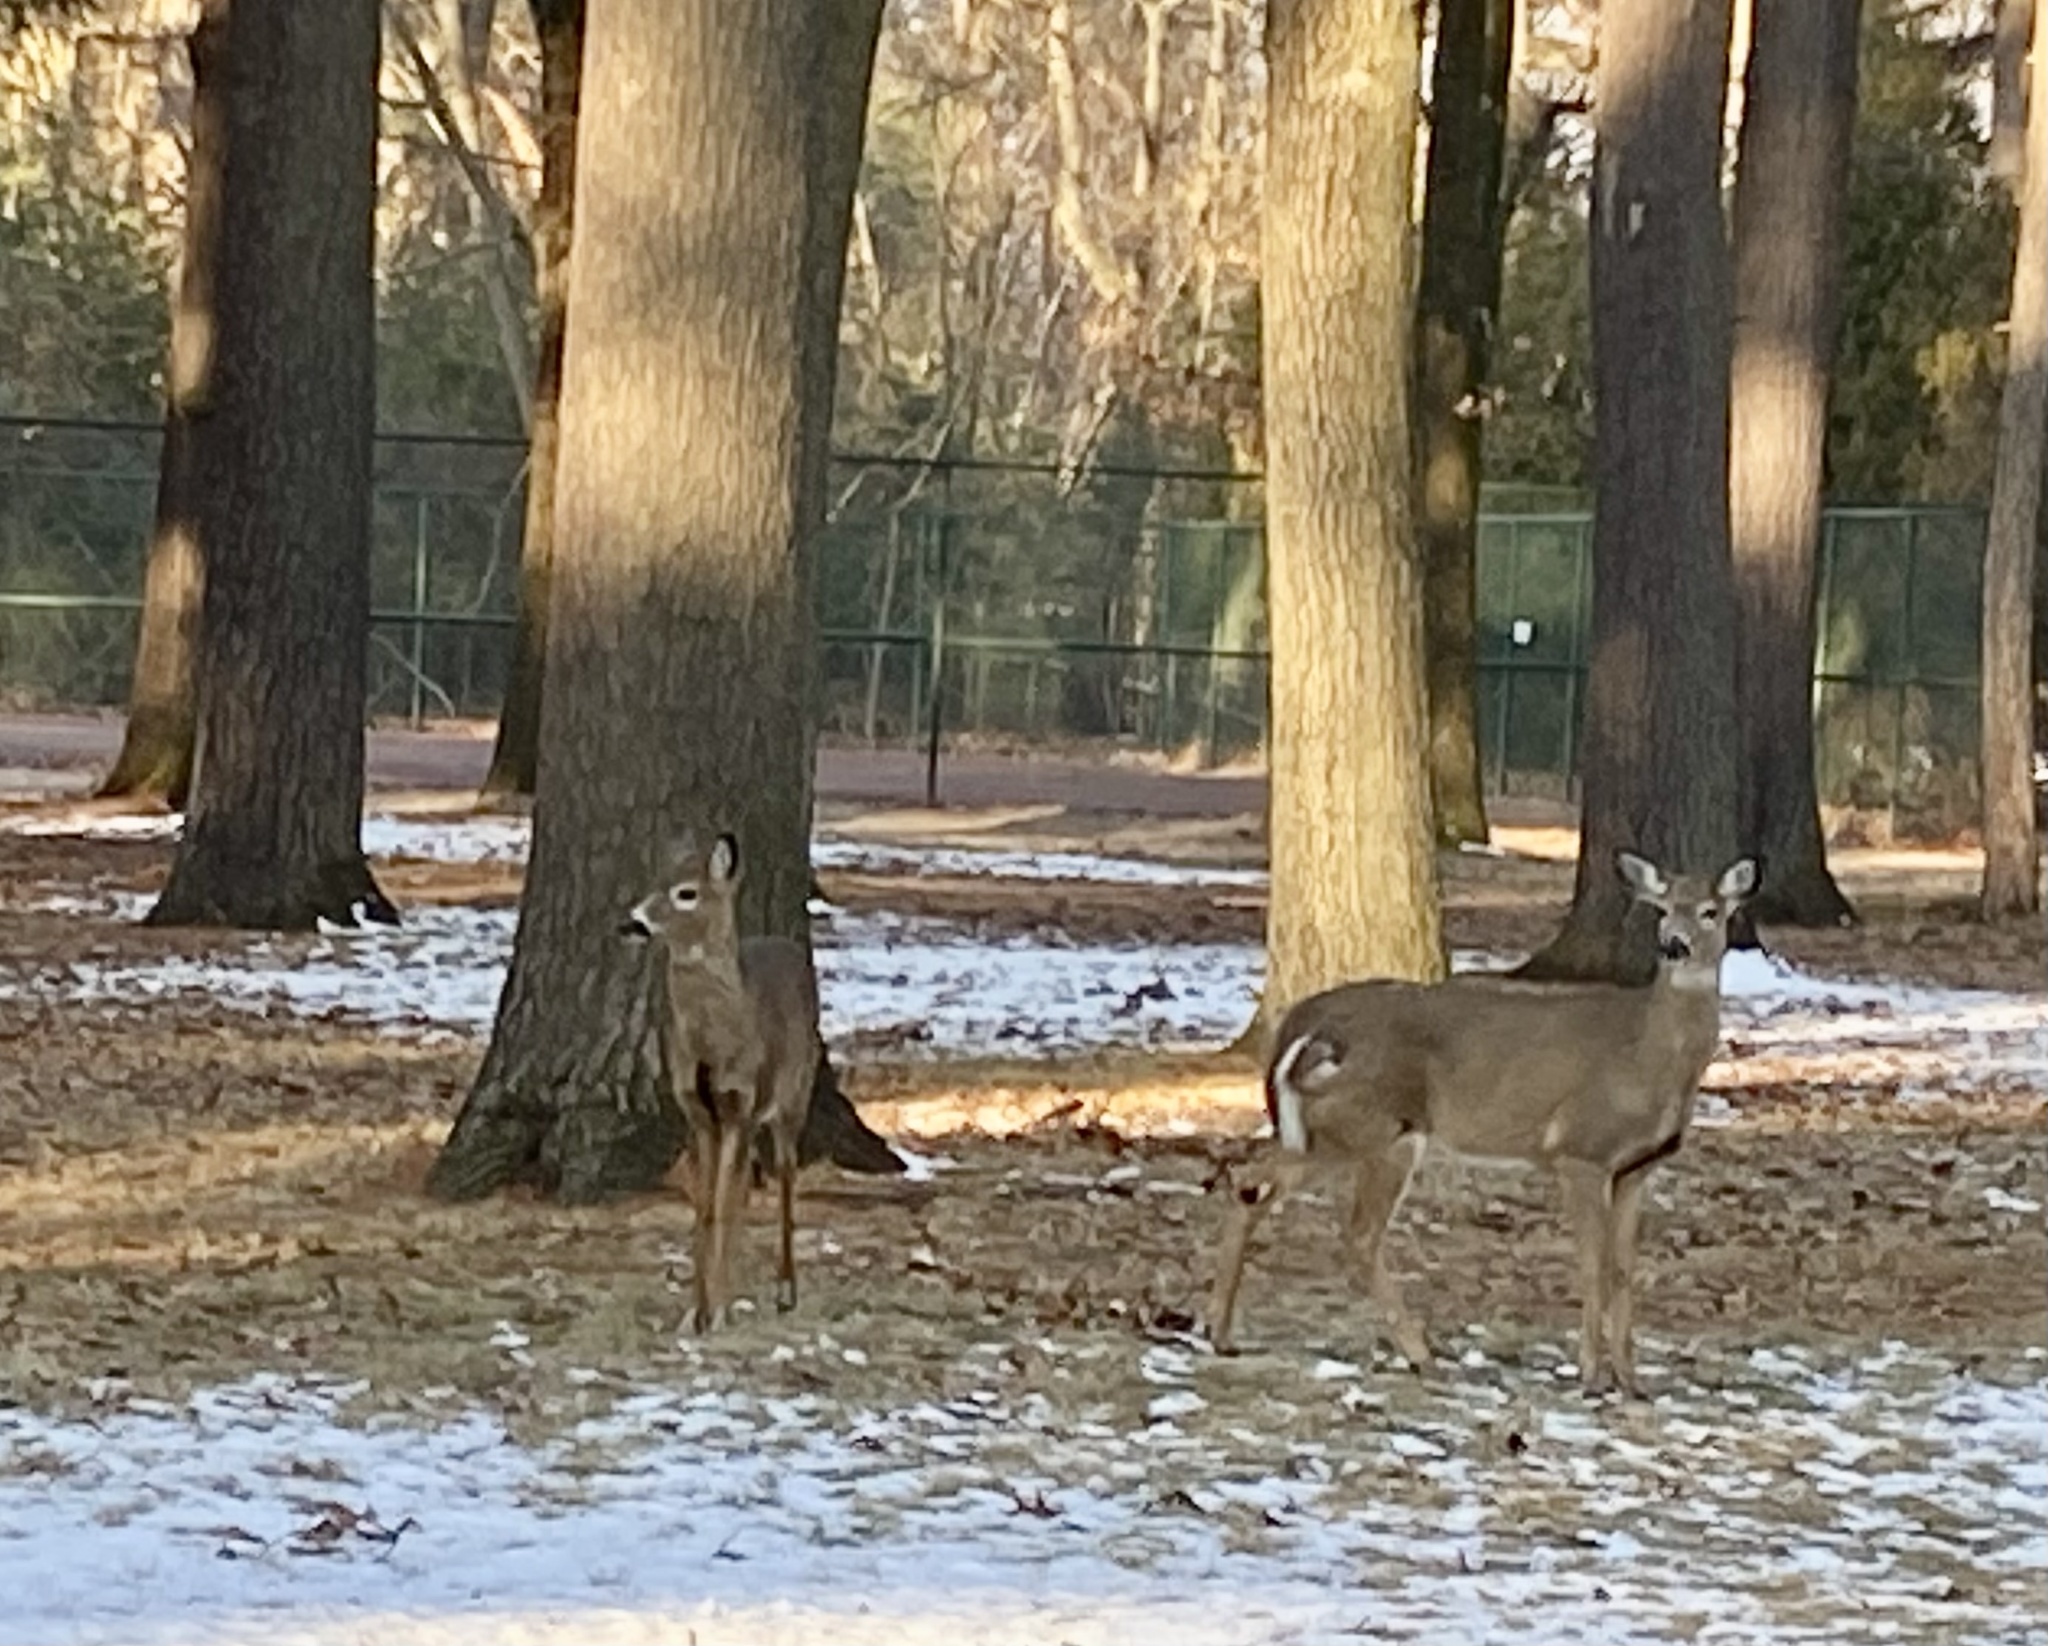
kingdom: Animalia
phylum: Chordata
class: Mammalia
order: Artiodactyla
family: Cervidae
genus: Odocoileus
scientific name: Odocoileus virginianus
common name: White-tailed deer
